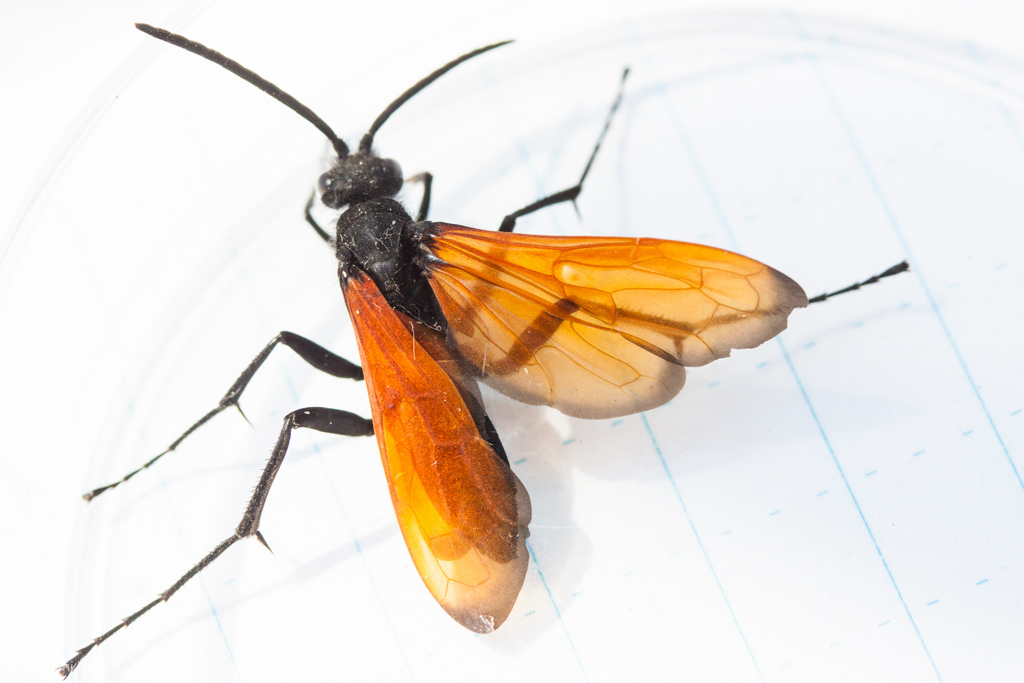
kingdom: Animalia
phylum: Arthropoda
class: Insecta
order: Hymenoptera
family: Pompilidae
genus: Hemipepsis
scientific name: Hemipepsis ustulata
